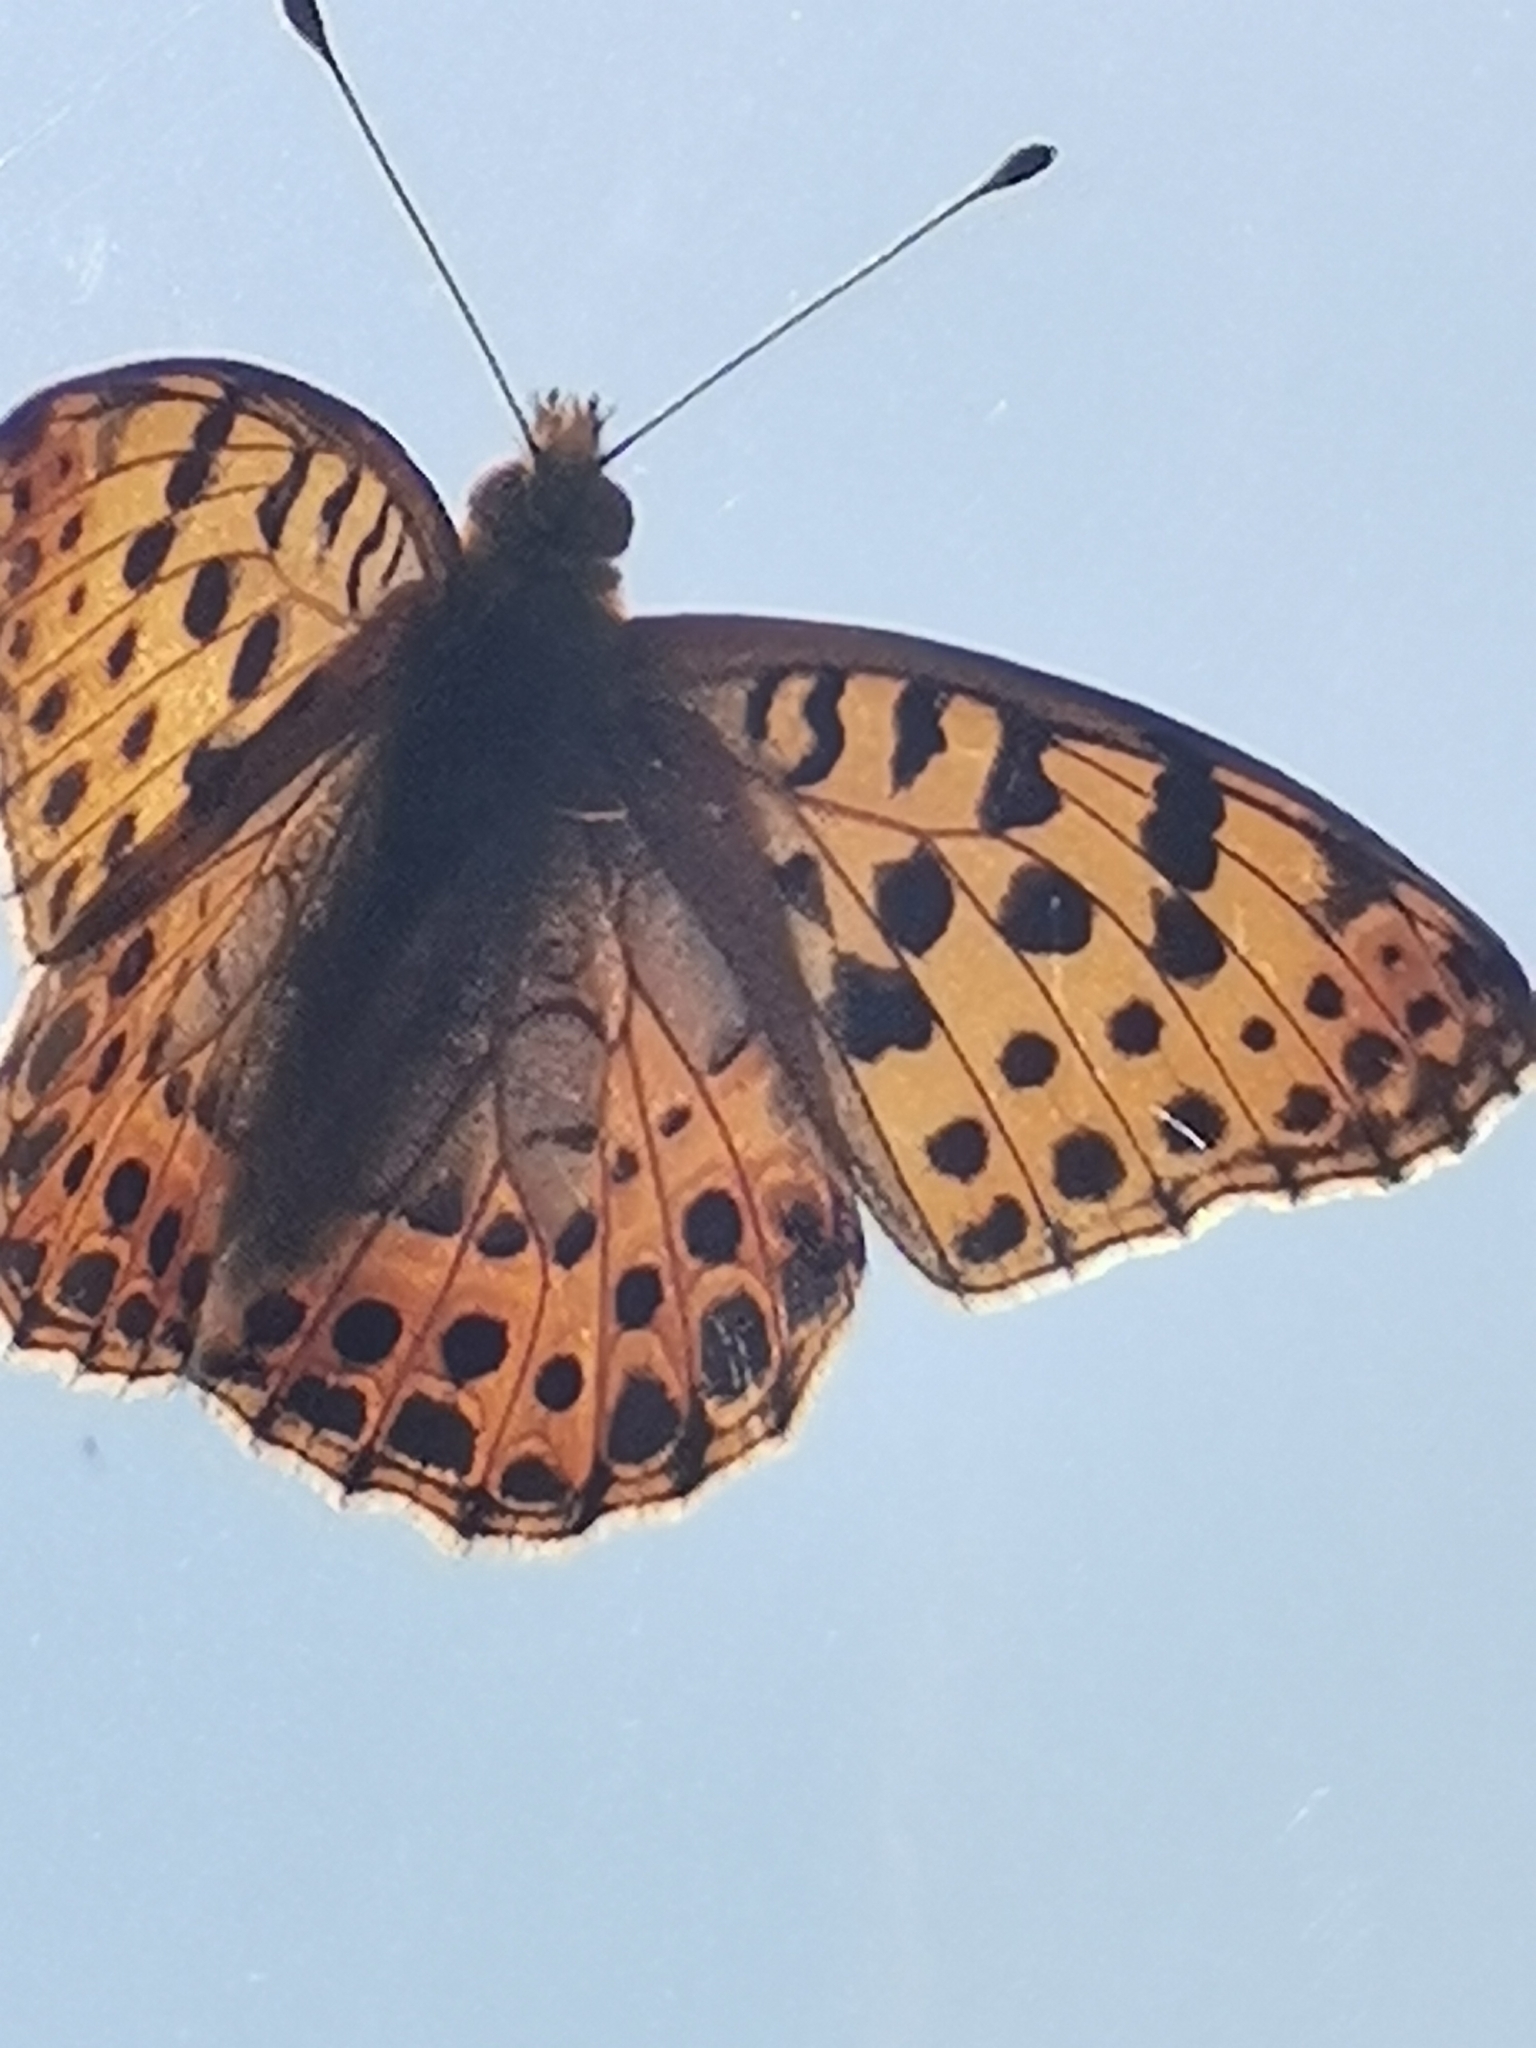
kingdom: Animalia
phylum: Arthropoda
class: Insecta
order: Lepidoptera
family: Nymphalidae
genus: Issoria
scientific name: Issoria lathonia
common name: Queen of spain fritillary
